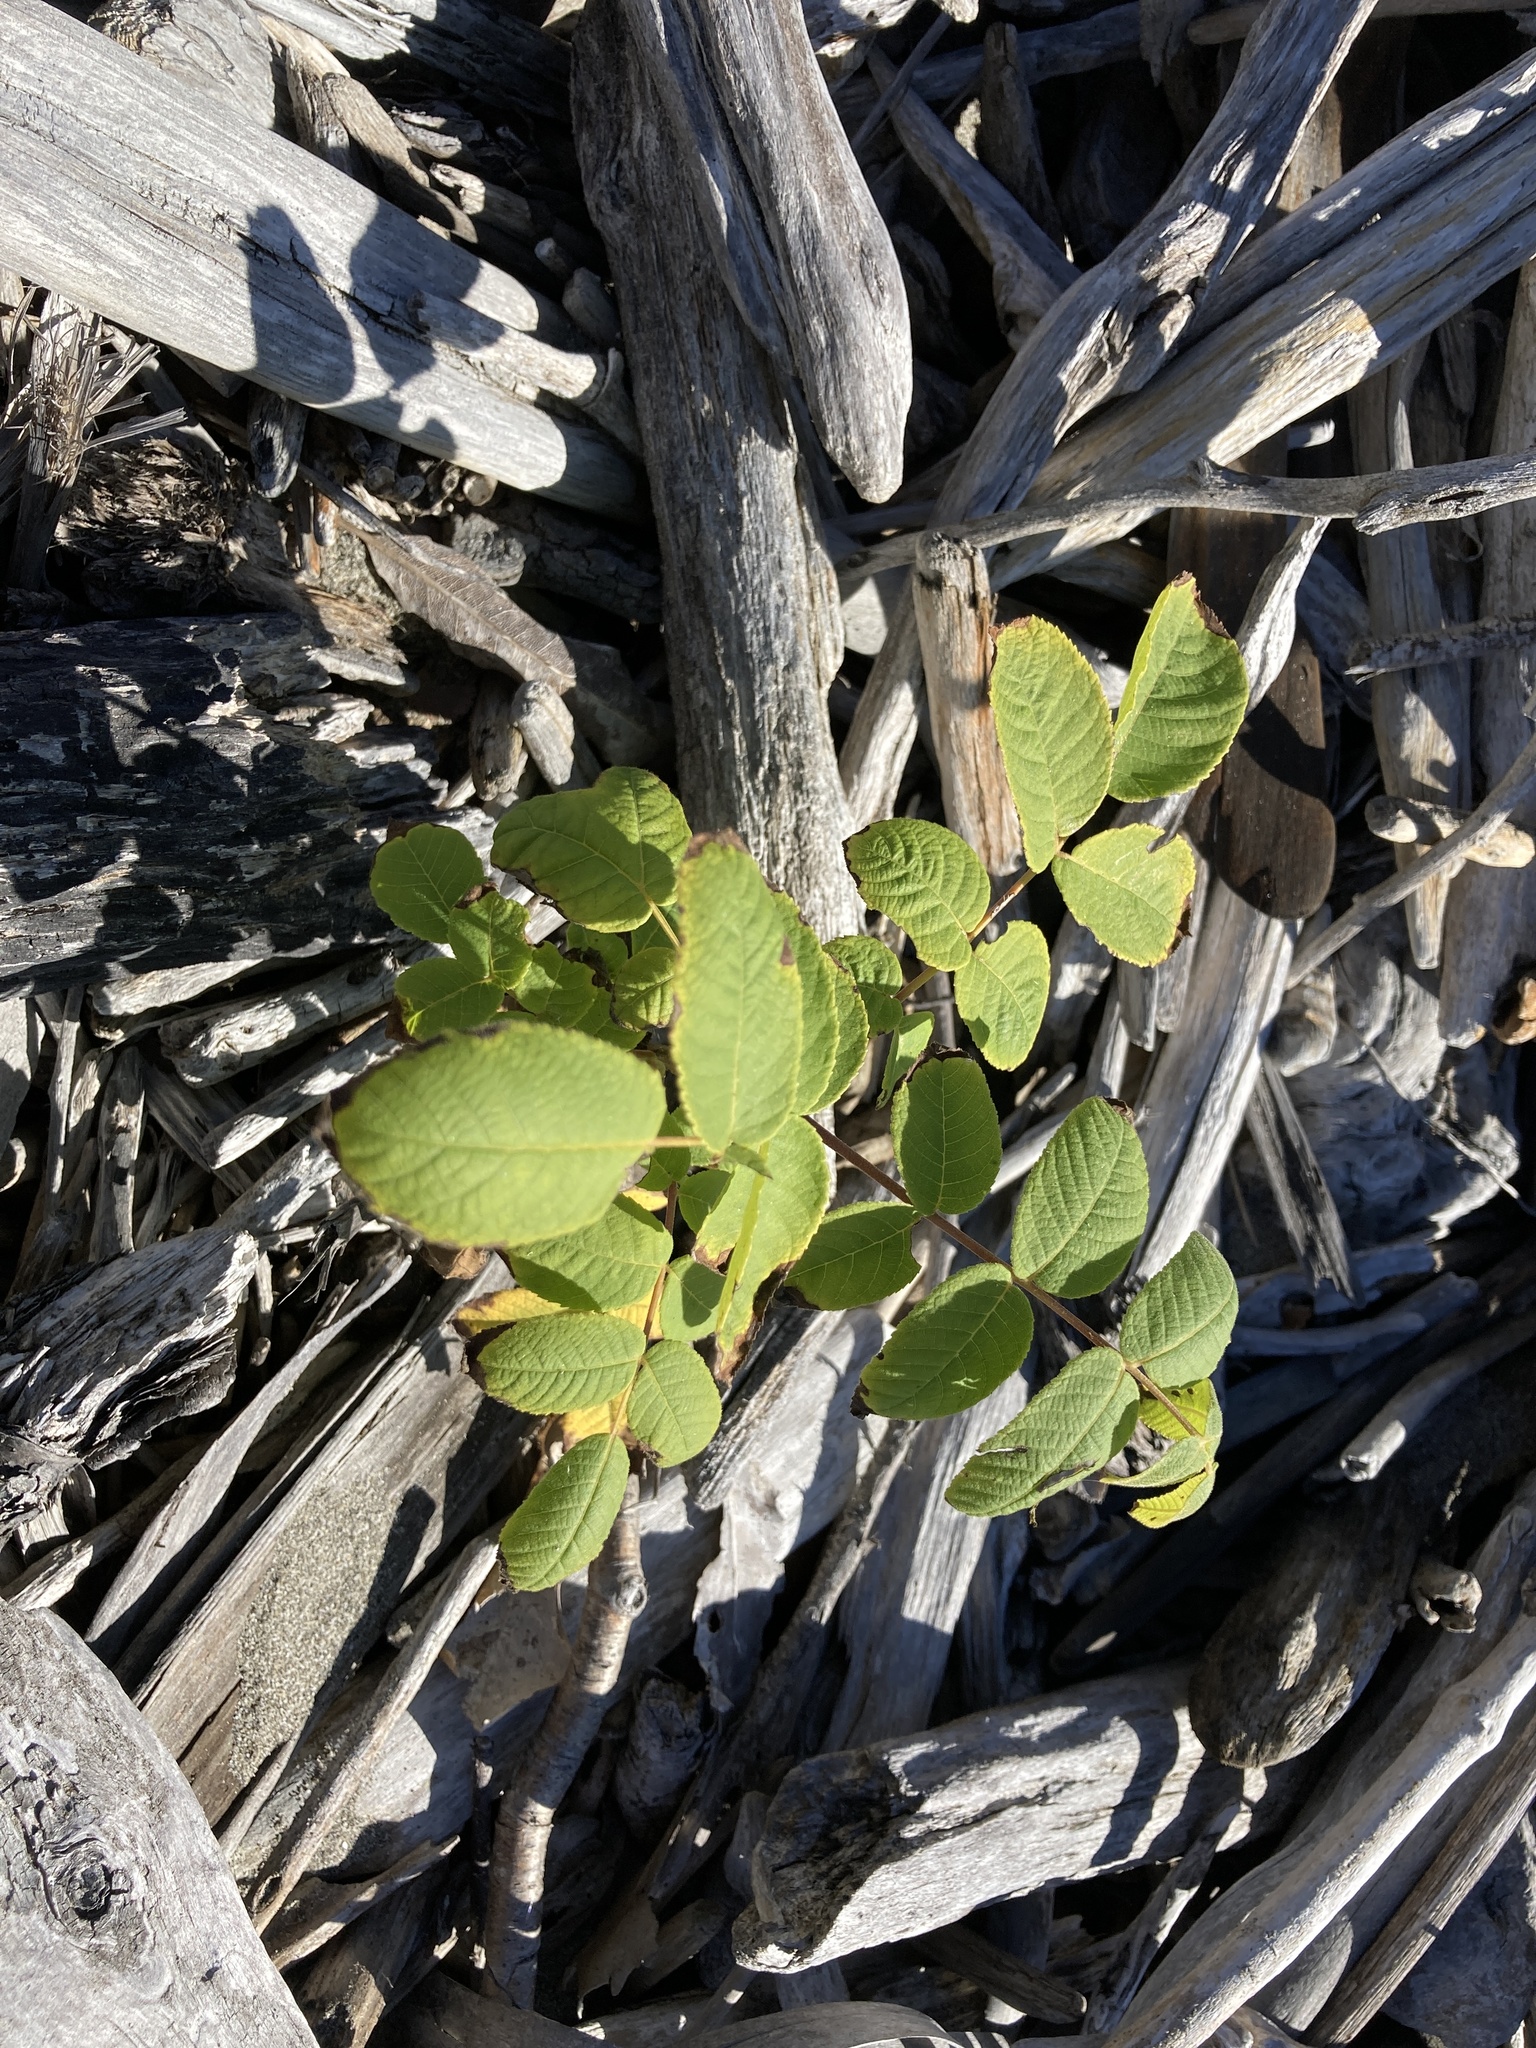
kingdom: Plantae
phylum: Tracheophyta
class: Magnoliopsida
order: Fagales
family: Juglandaceae
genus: Juglans
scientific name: Juglans regia
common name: Walnut
